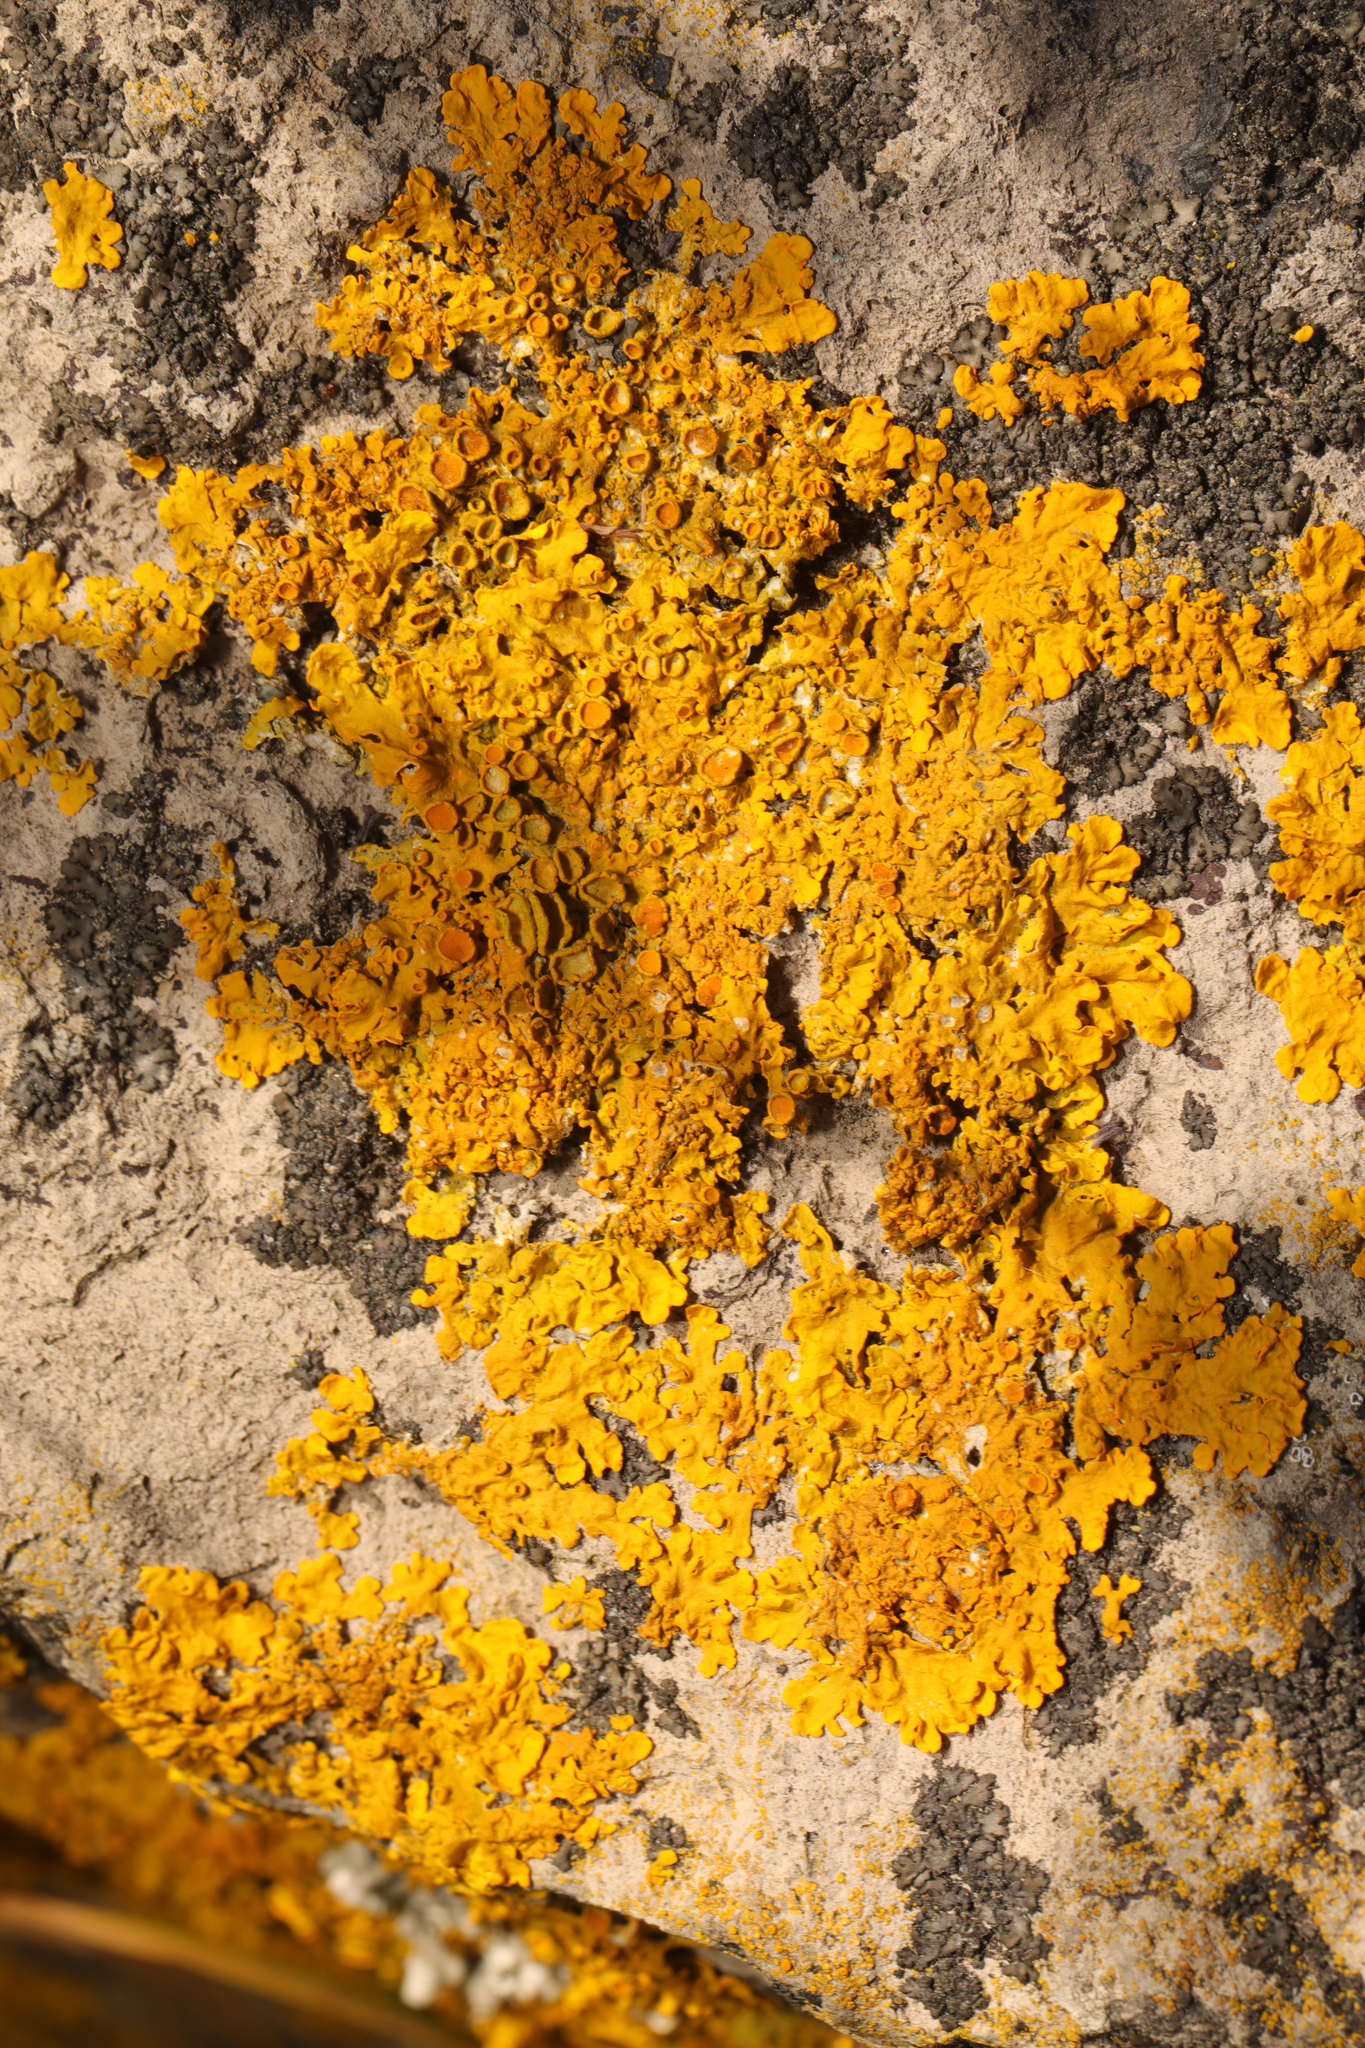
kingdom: Fungi
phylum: Ascomycota
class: Lecanoromycetes
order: Teloschistales
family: Teloschistaceae
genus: Xanthoria
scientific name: Xanthoria parietina
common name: Common orange lichen
